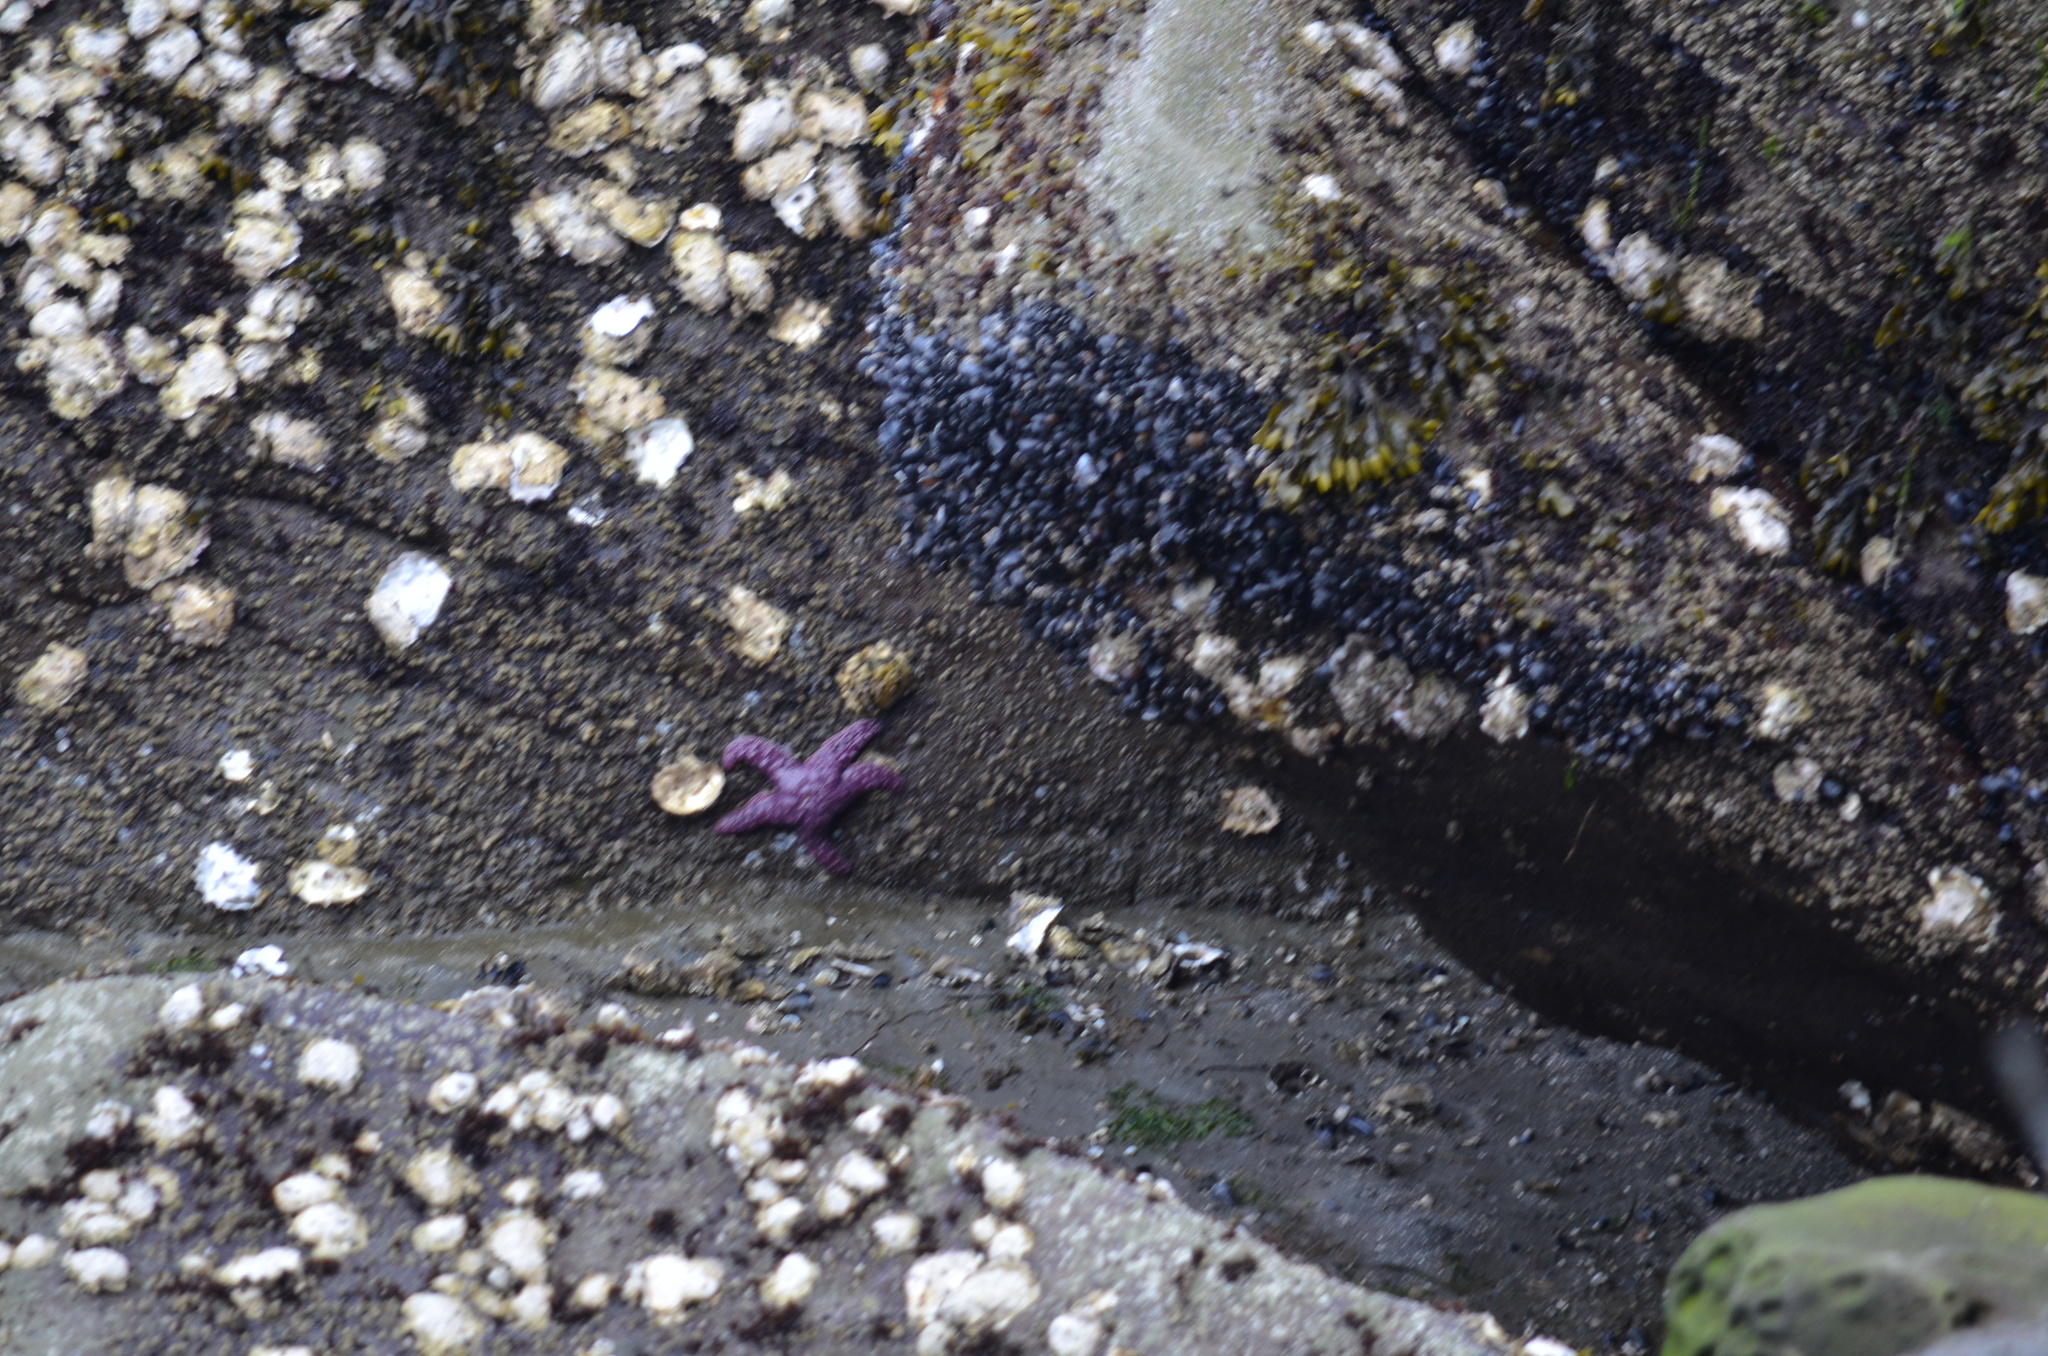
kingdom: Animalia
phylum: Echinodermata
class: Asteroidea
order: Forcipulatida
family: Asteriidae
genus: Pisaster
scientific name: Pisaster ochraceus
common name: Ochre stars
